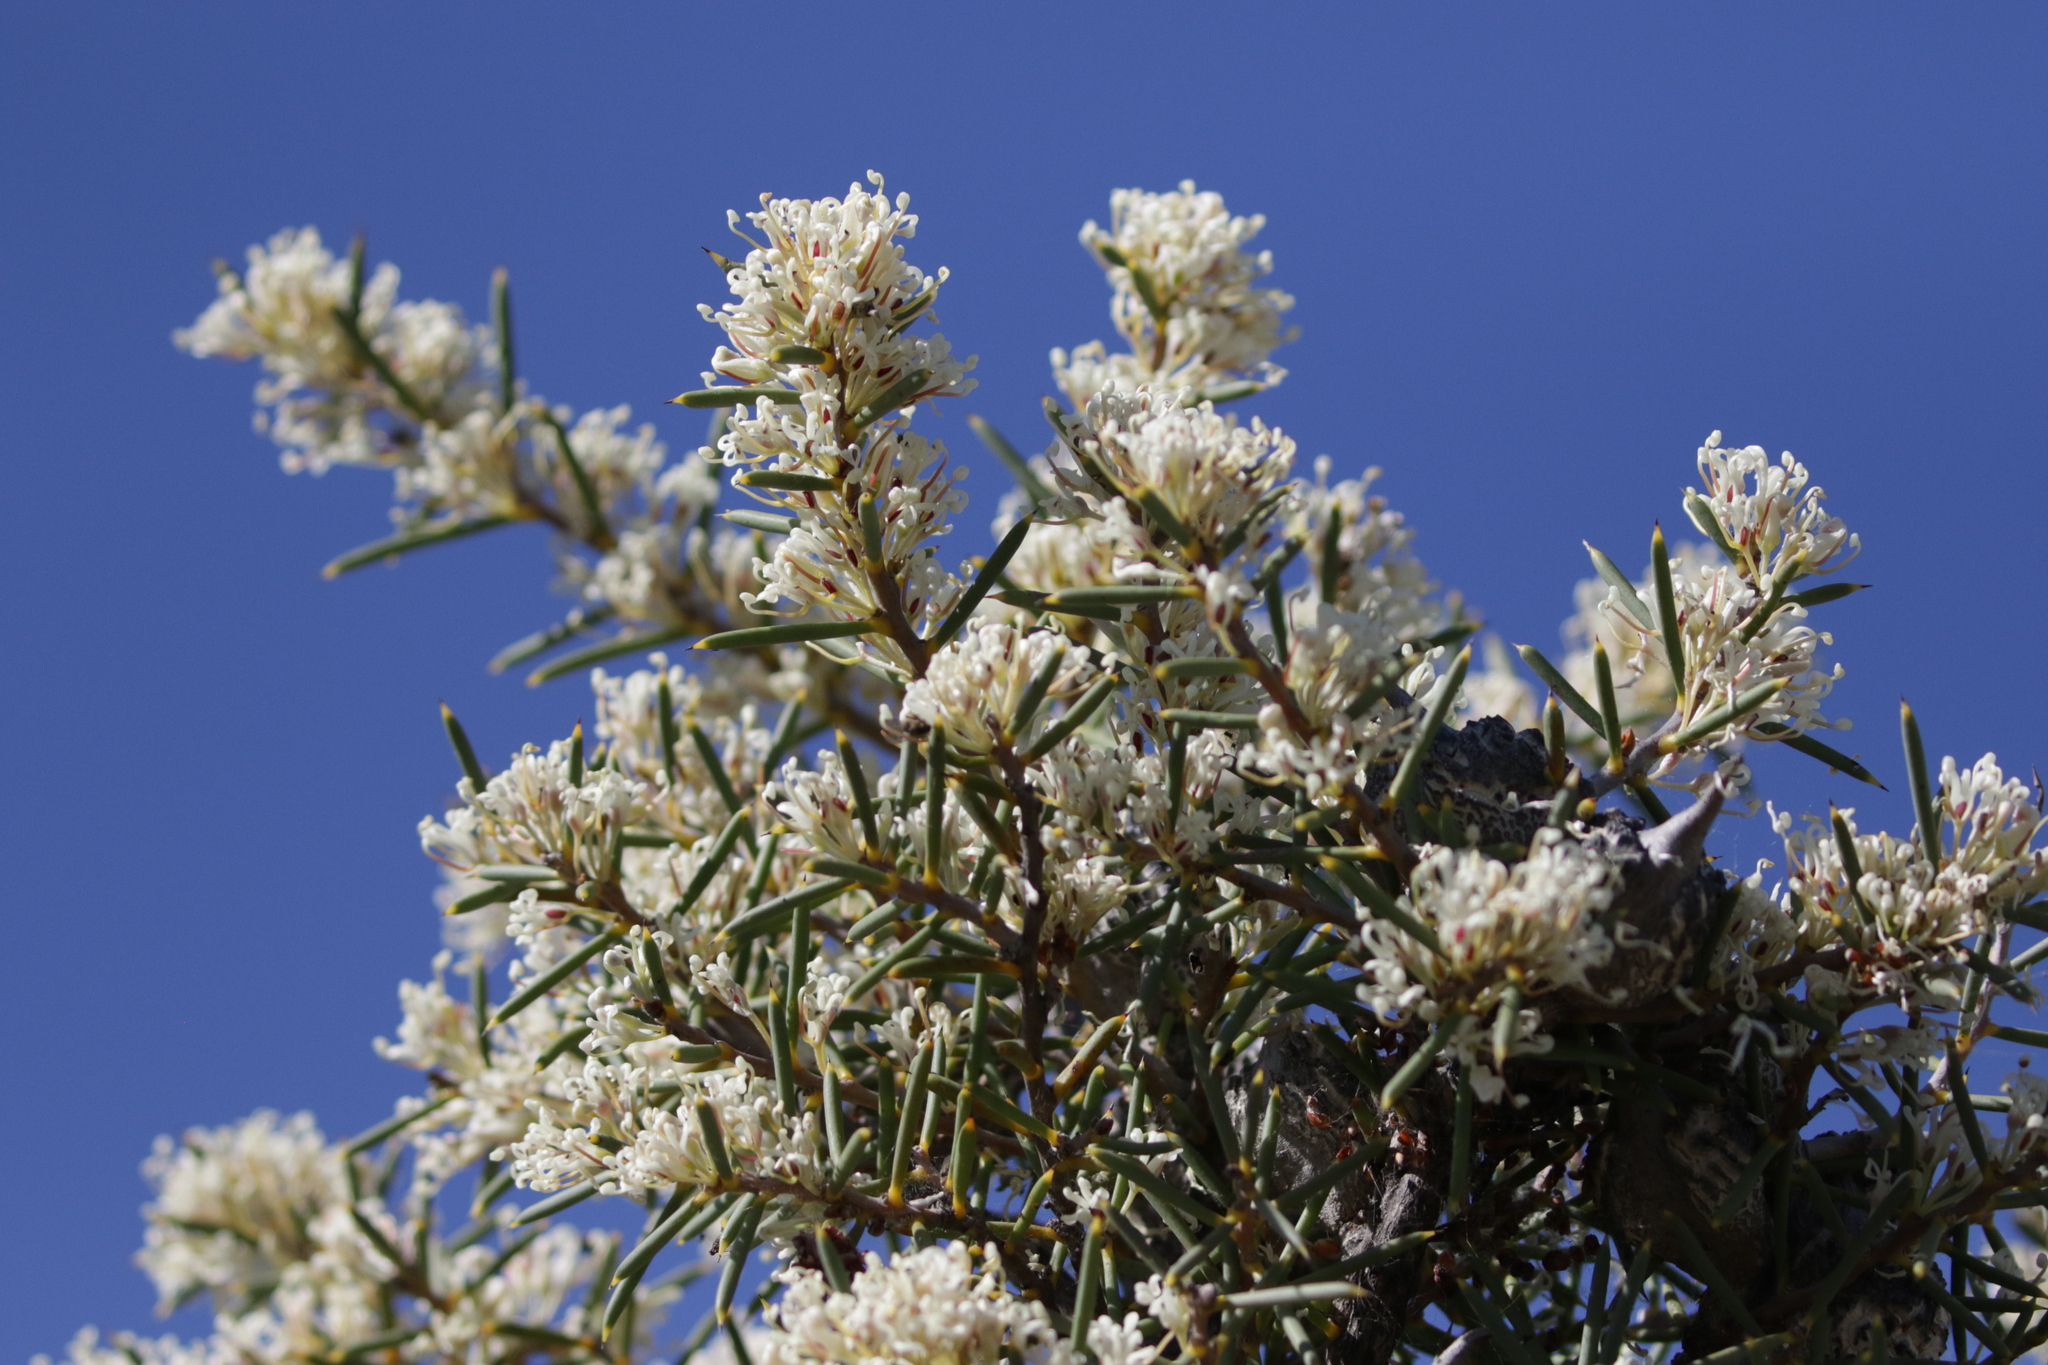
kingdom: Plantae
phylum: Tracheophyta
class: Magnoliopsida
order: Proteales
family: Proteaceae
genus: Hakea
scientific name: Hakea psilorrhyncha
